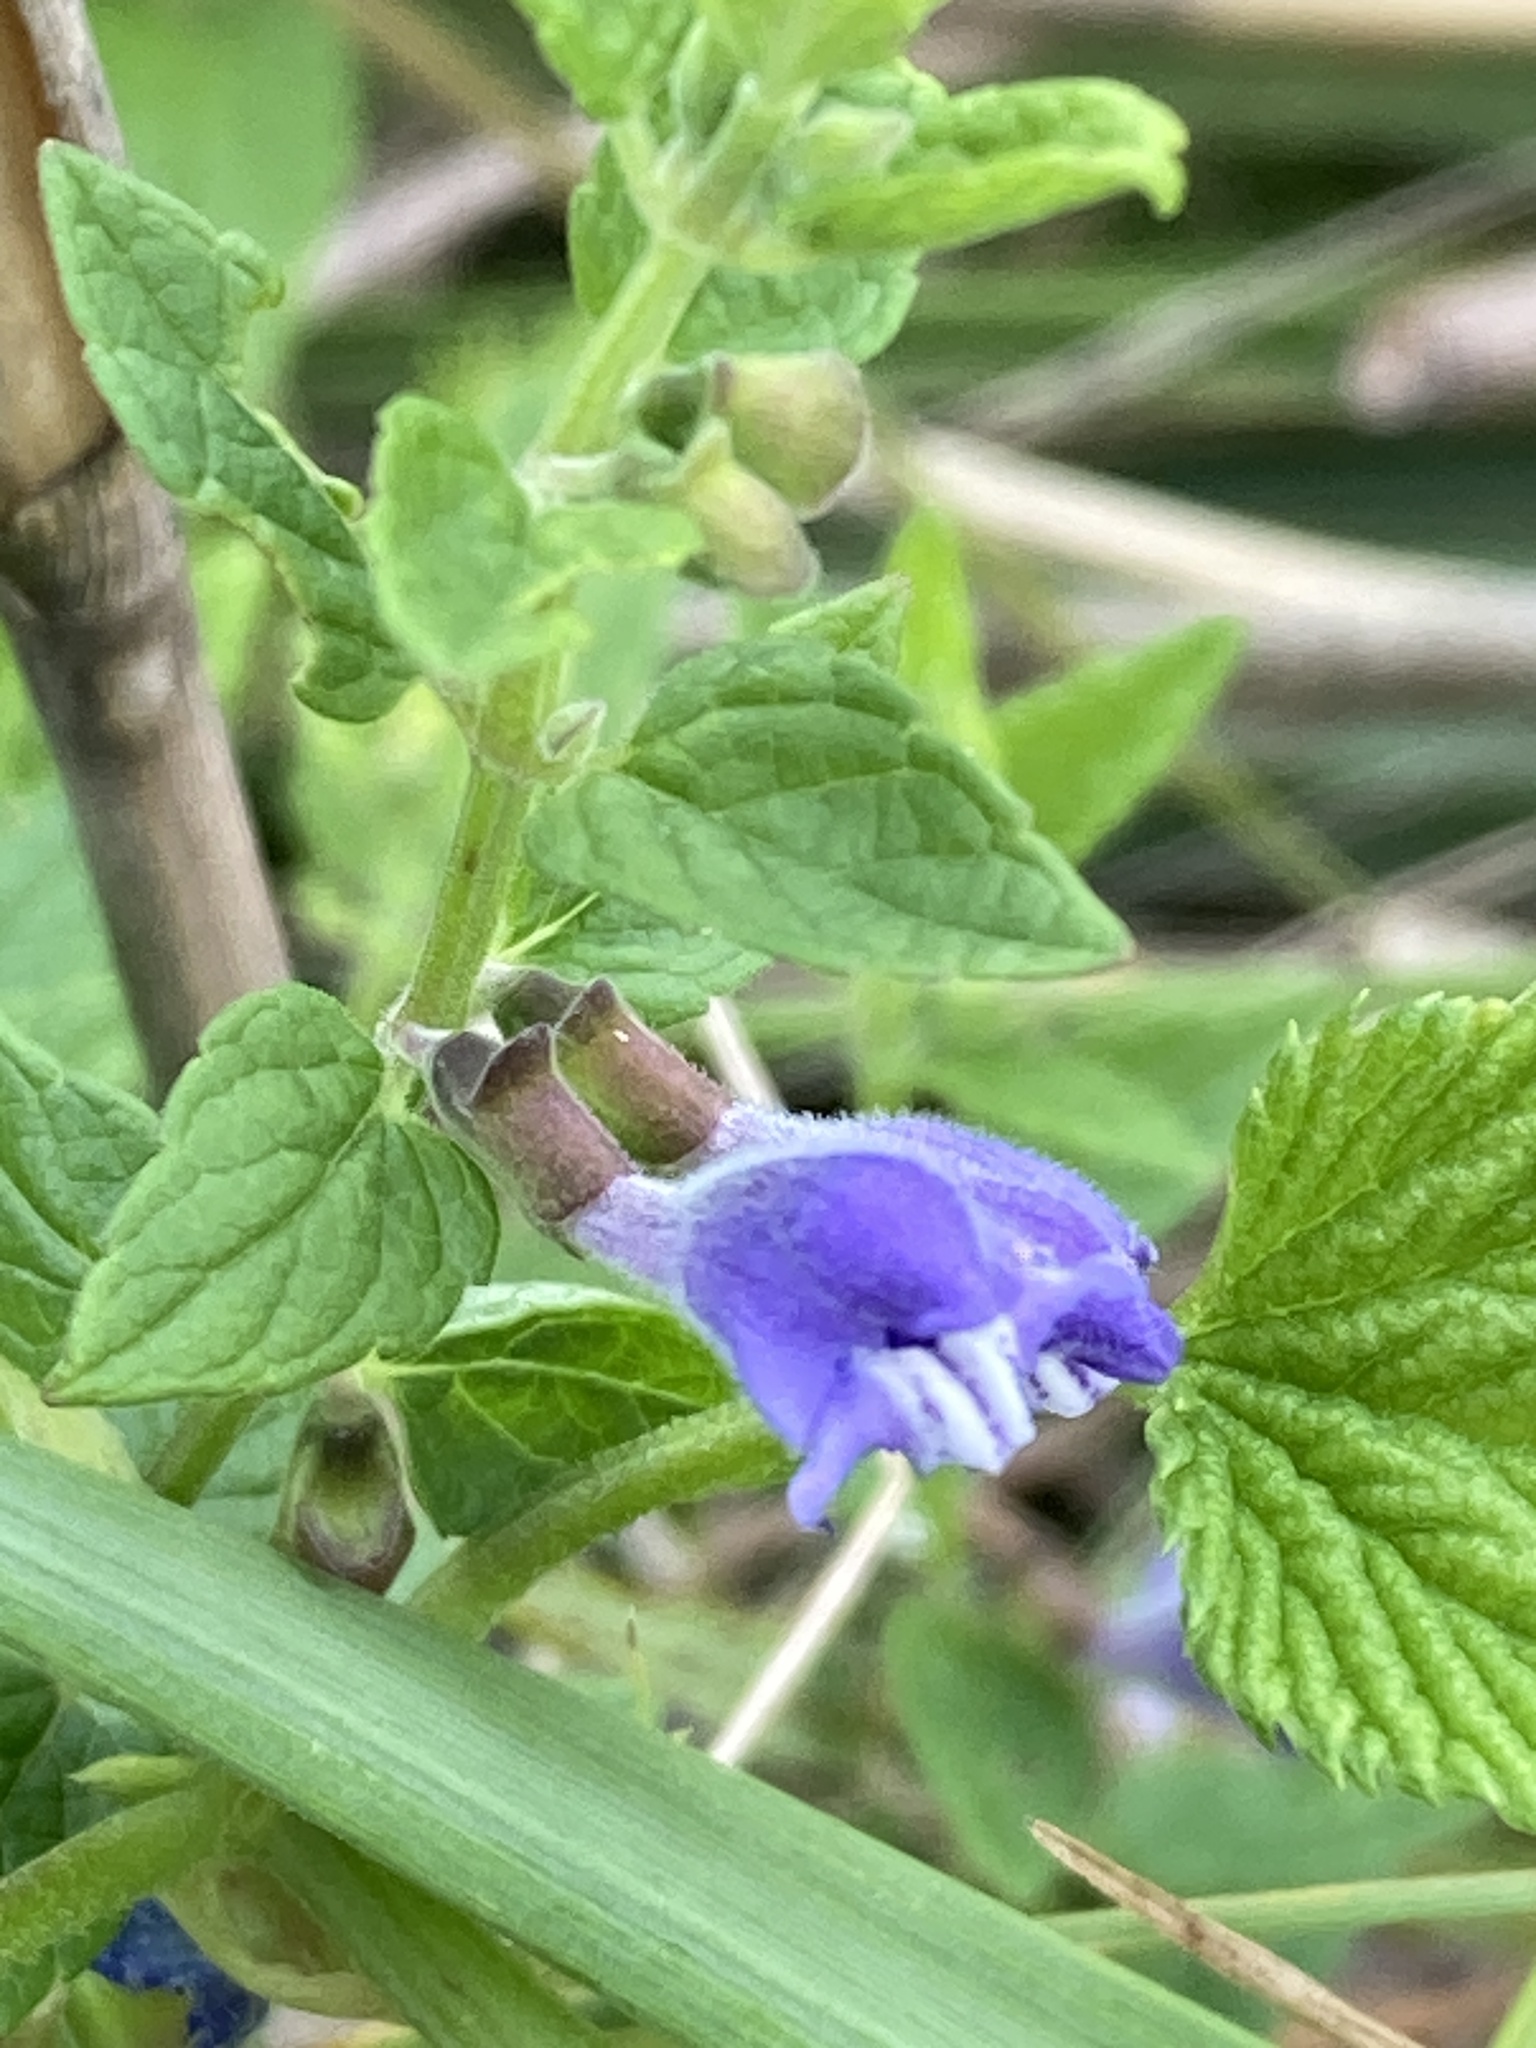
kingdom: Plantae
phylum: Tracheophyta
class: Magnoliopsida
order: Lamiales
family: Lamiaceae
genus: Scutellaria
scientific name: Scutellaria galericulata
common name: Skullcap
